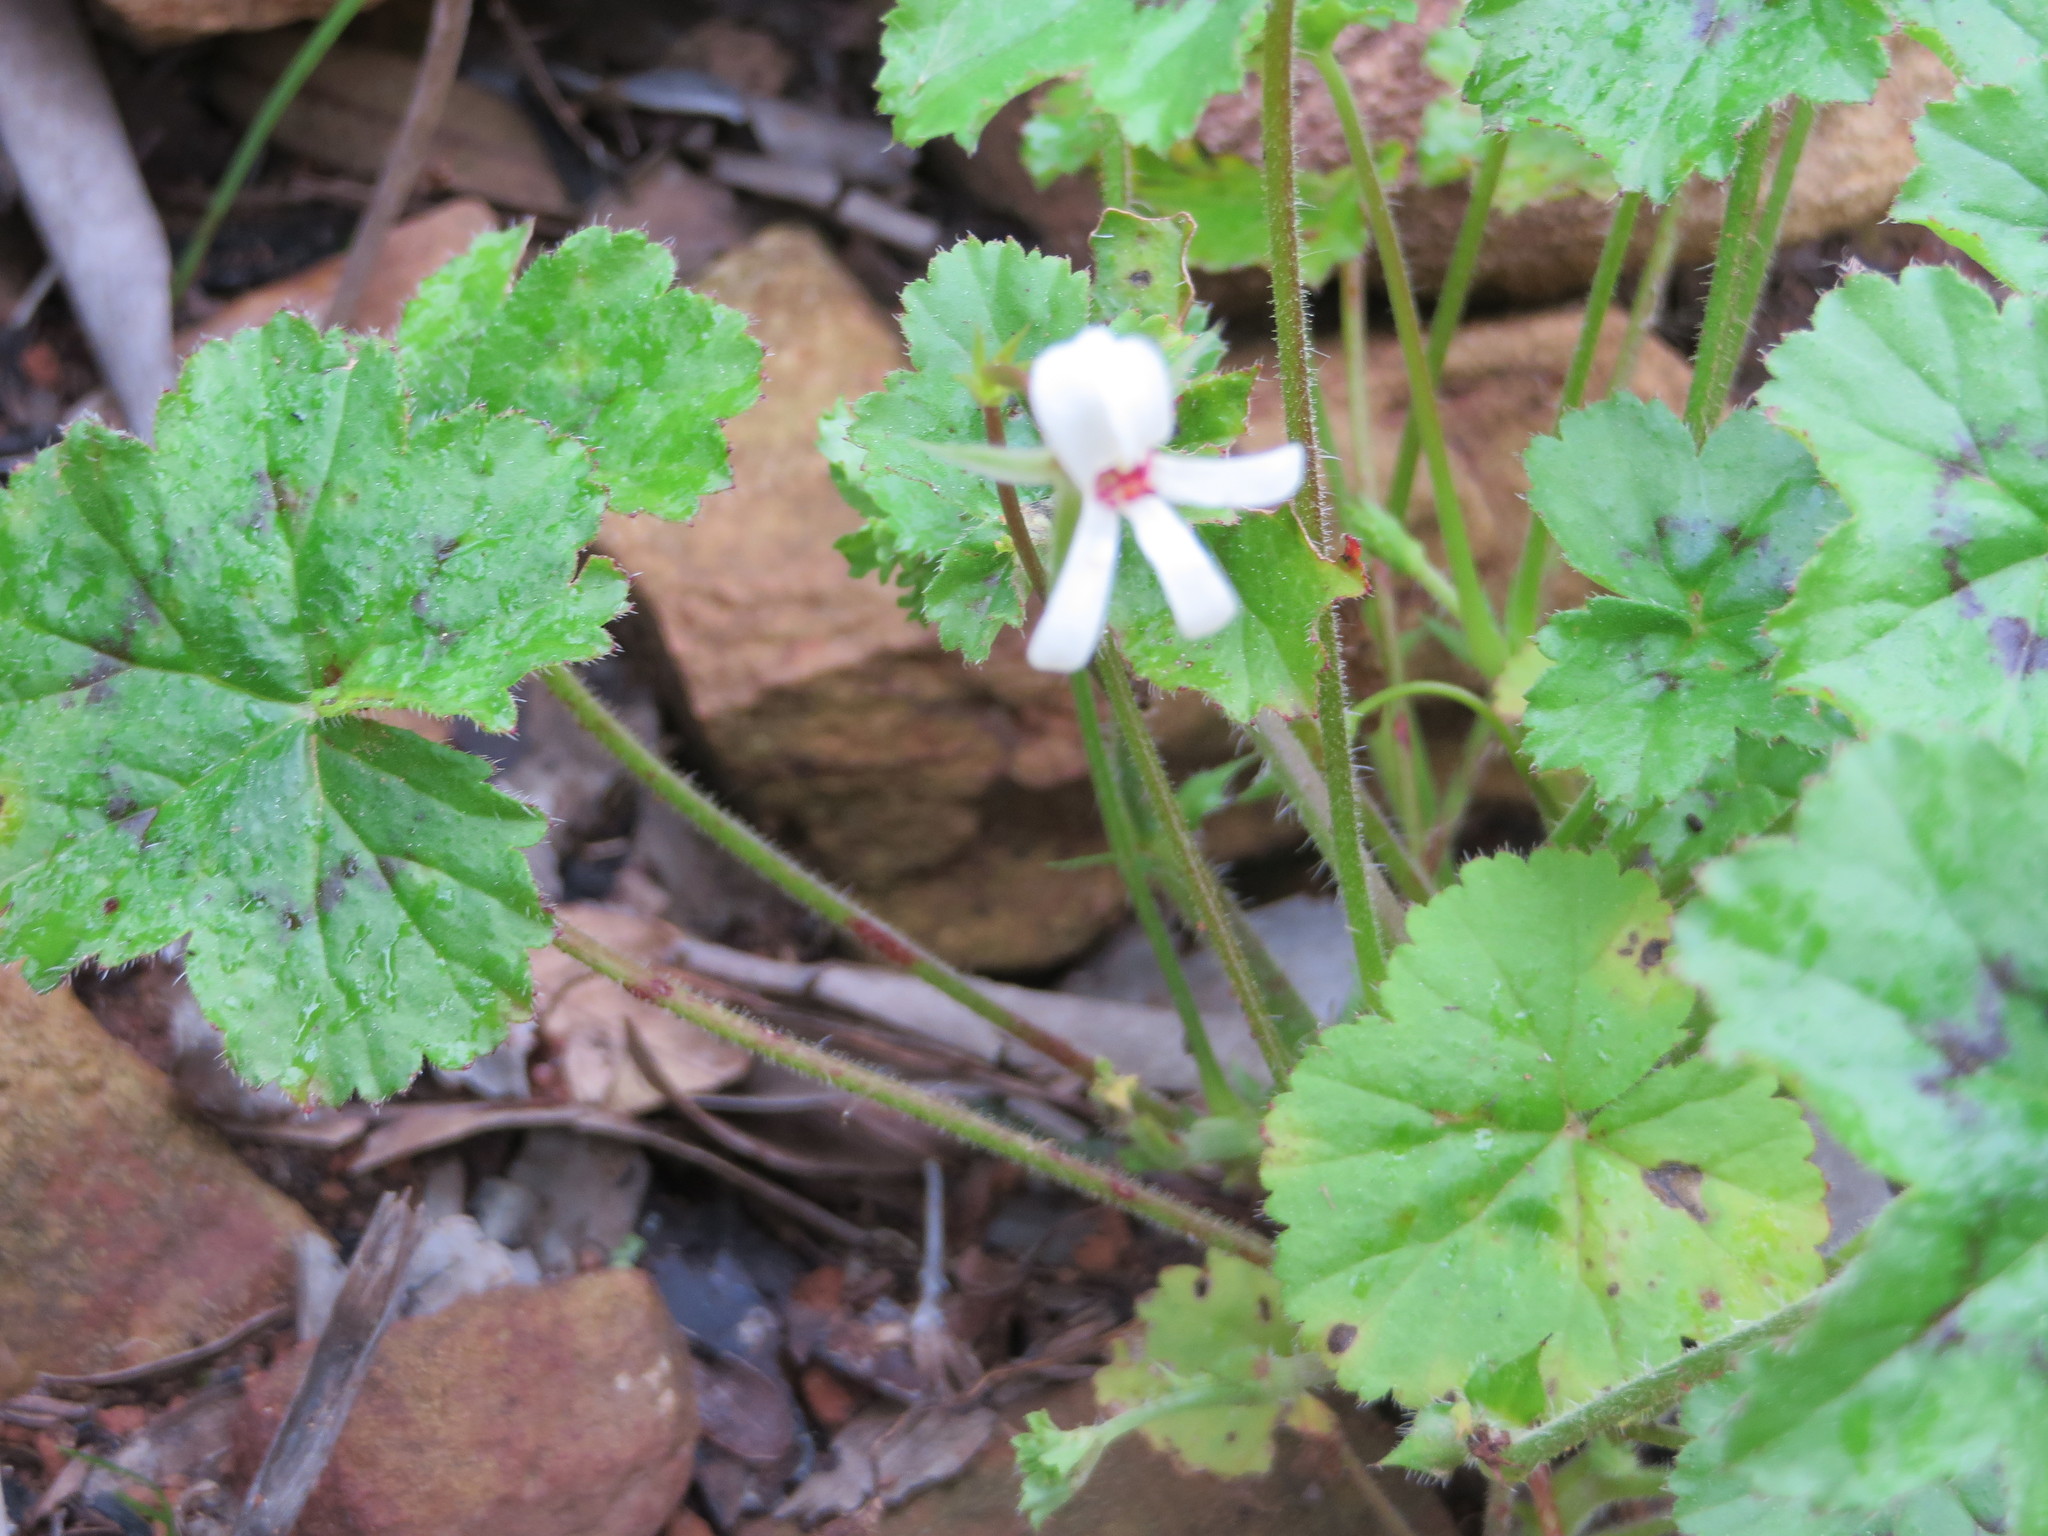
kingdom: Plantae
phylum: Tracheophyta
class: Magnoliopsida
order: Geraniales
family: Geraniaceae
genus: Pelargonium
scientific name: Pelargonium elongatum
